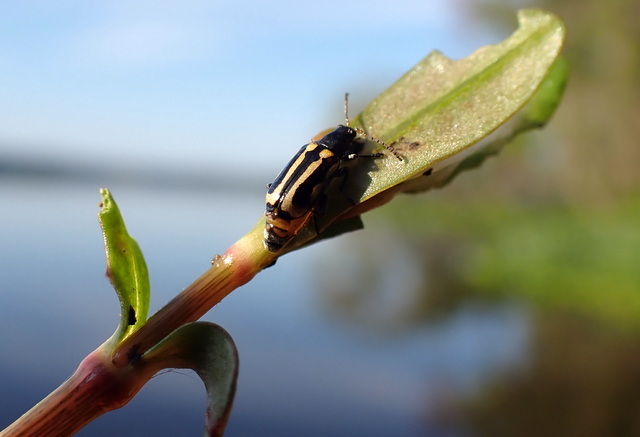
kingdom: Animalia
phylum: Arthropoda
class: Insecta
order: Coleoptera
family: Chrysomelidae
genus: Agasicles
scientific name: Agasicles hygrophila
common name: Alligatorweed flea beetle
